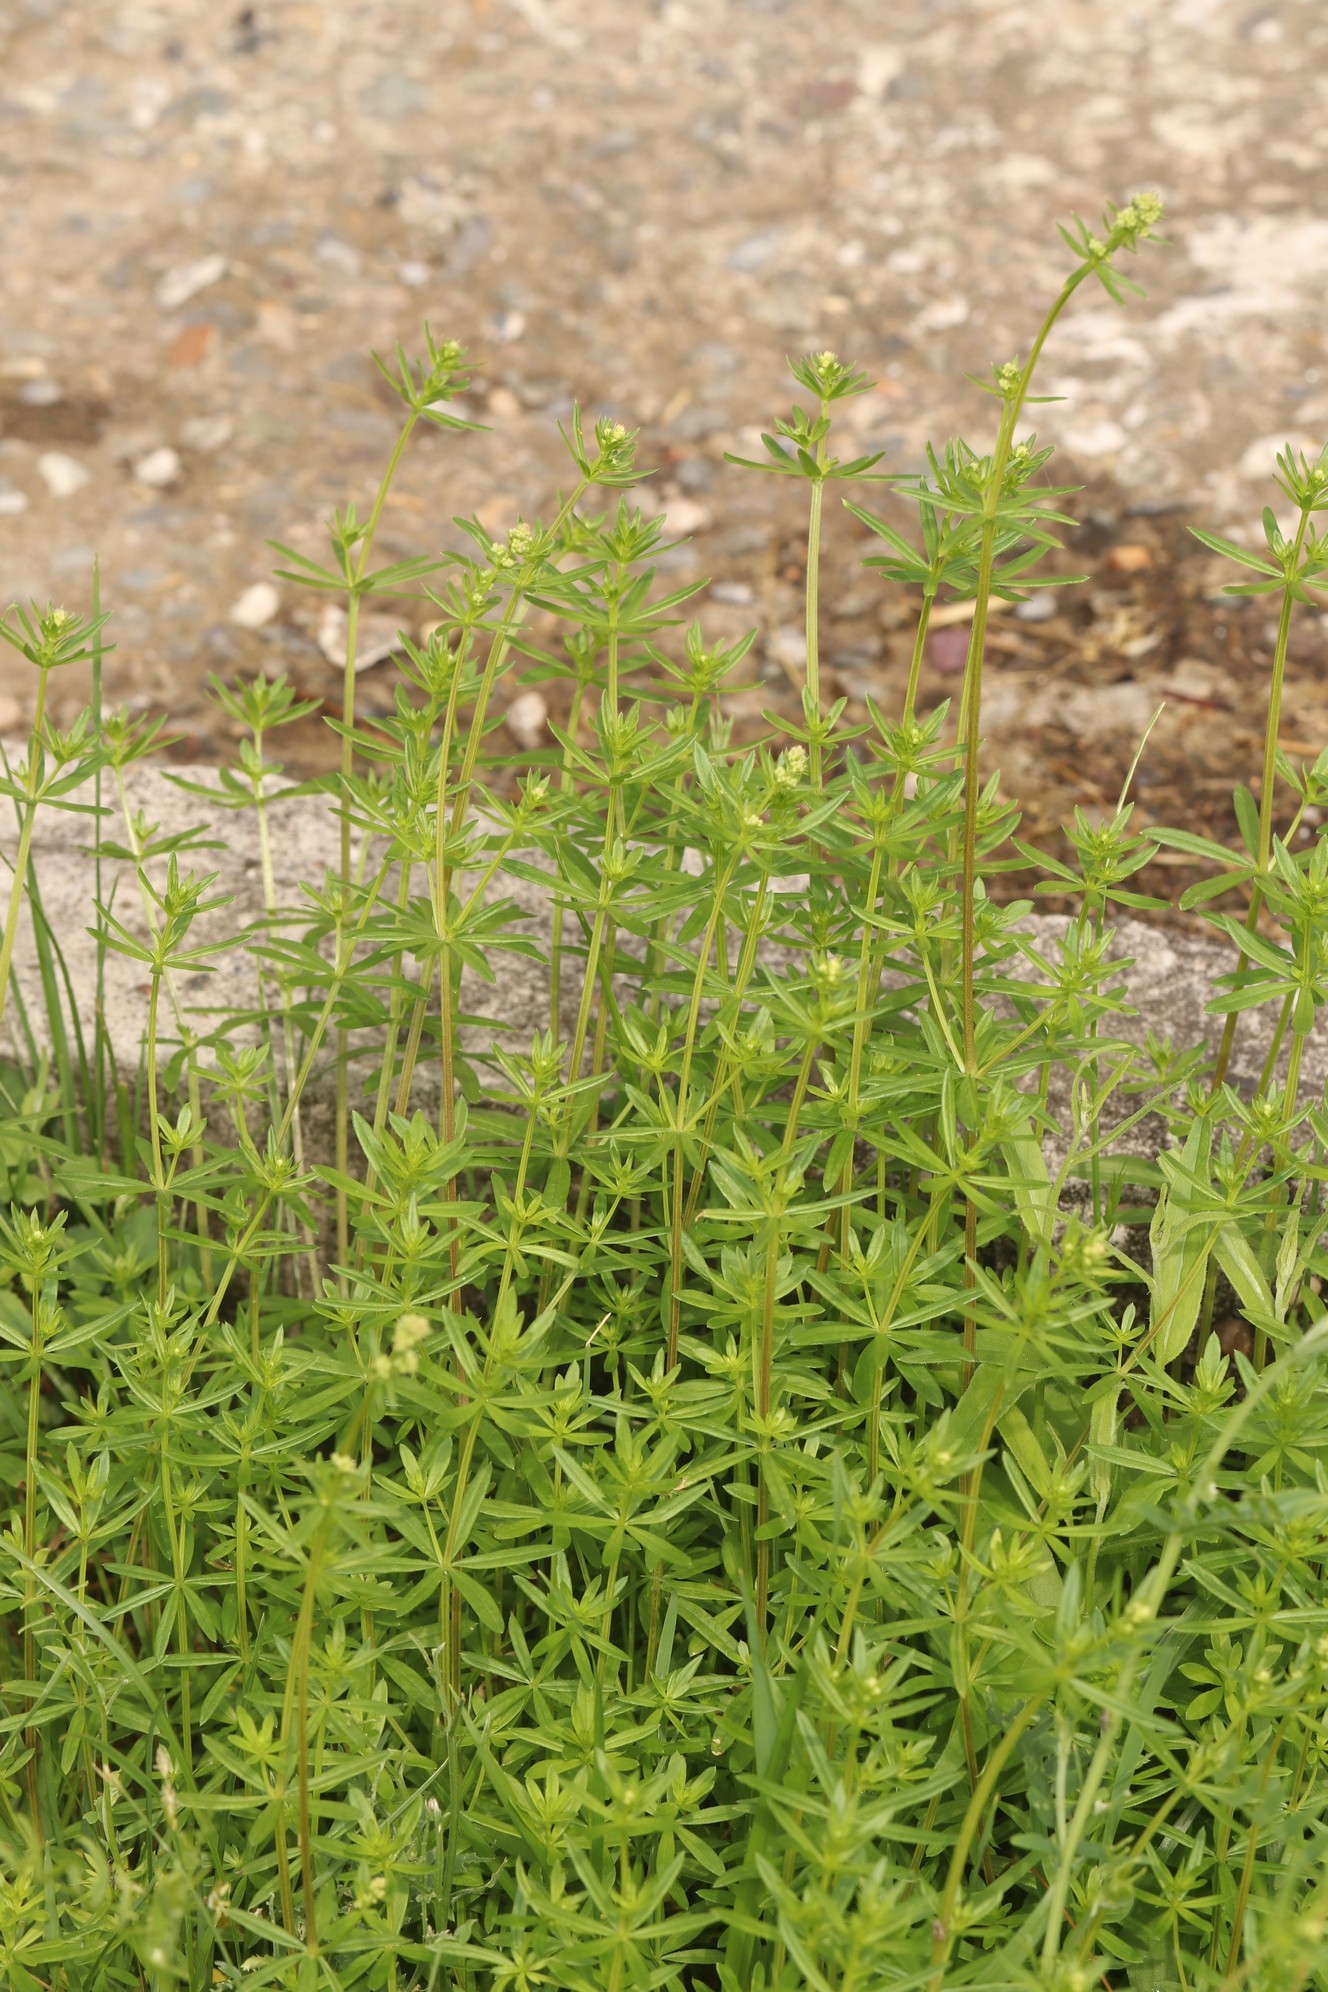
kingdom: Plantae
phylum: Tracheophyta
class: Magnoliopsida
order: Gentianales
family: Rubiaceae
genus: Galium
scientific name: Galium mollugo
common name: Hedge bedstraw
